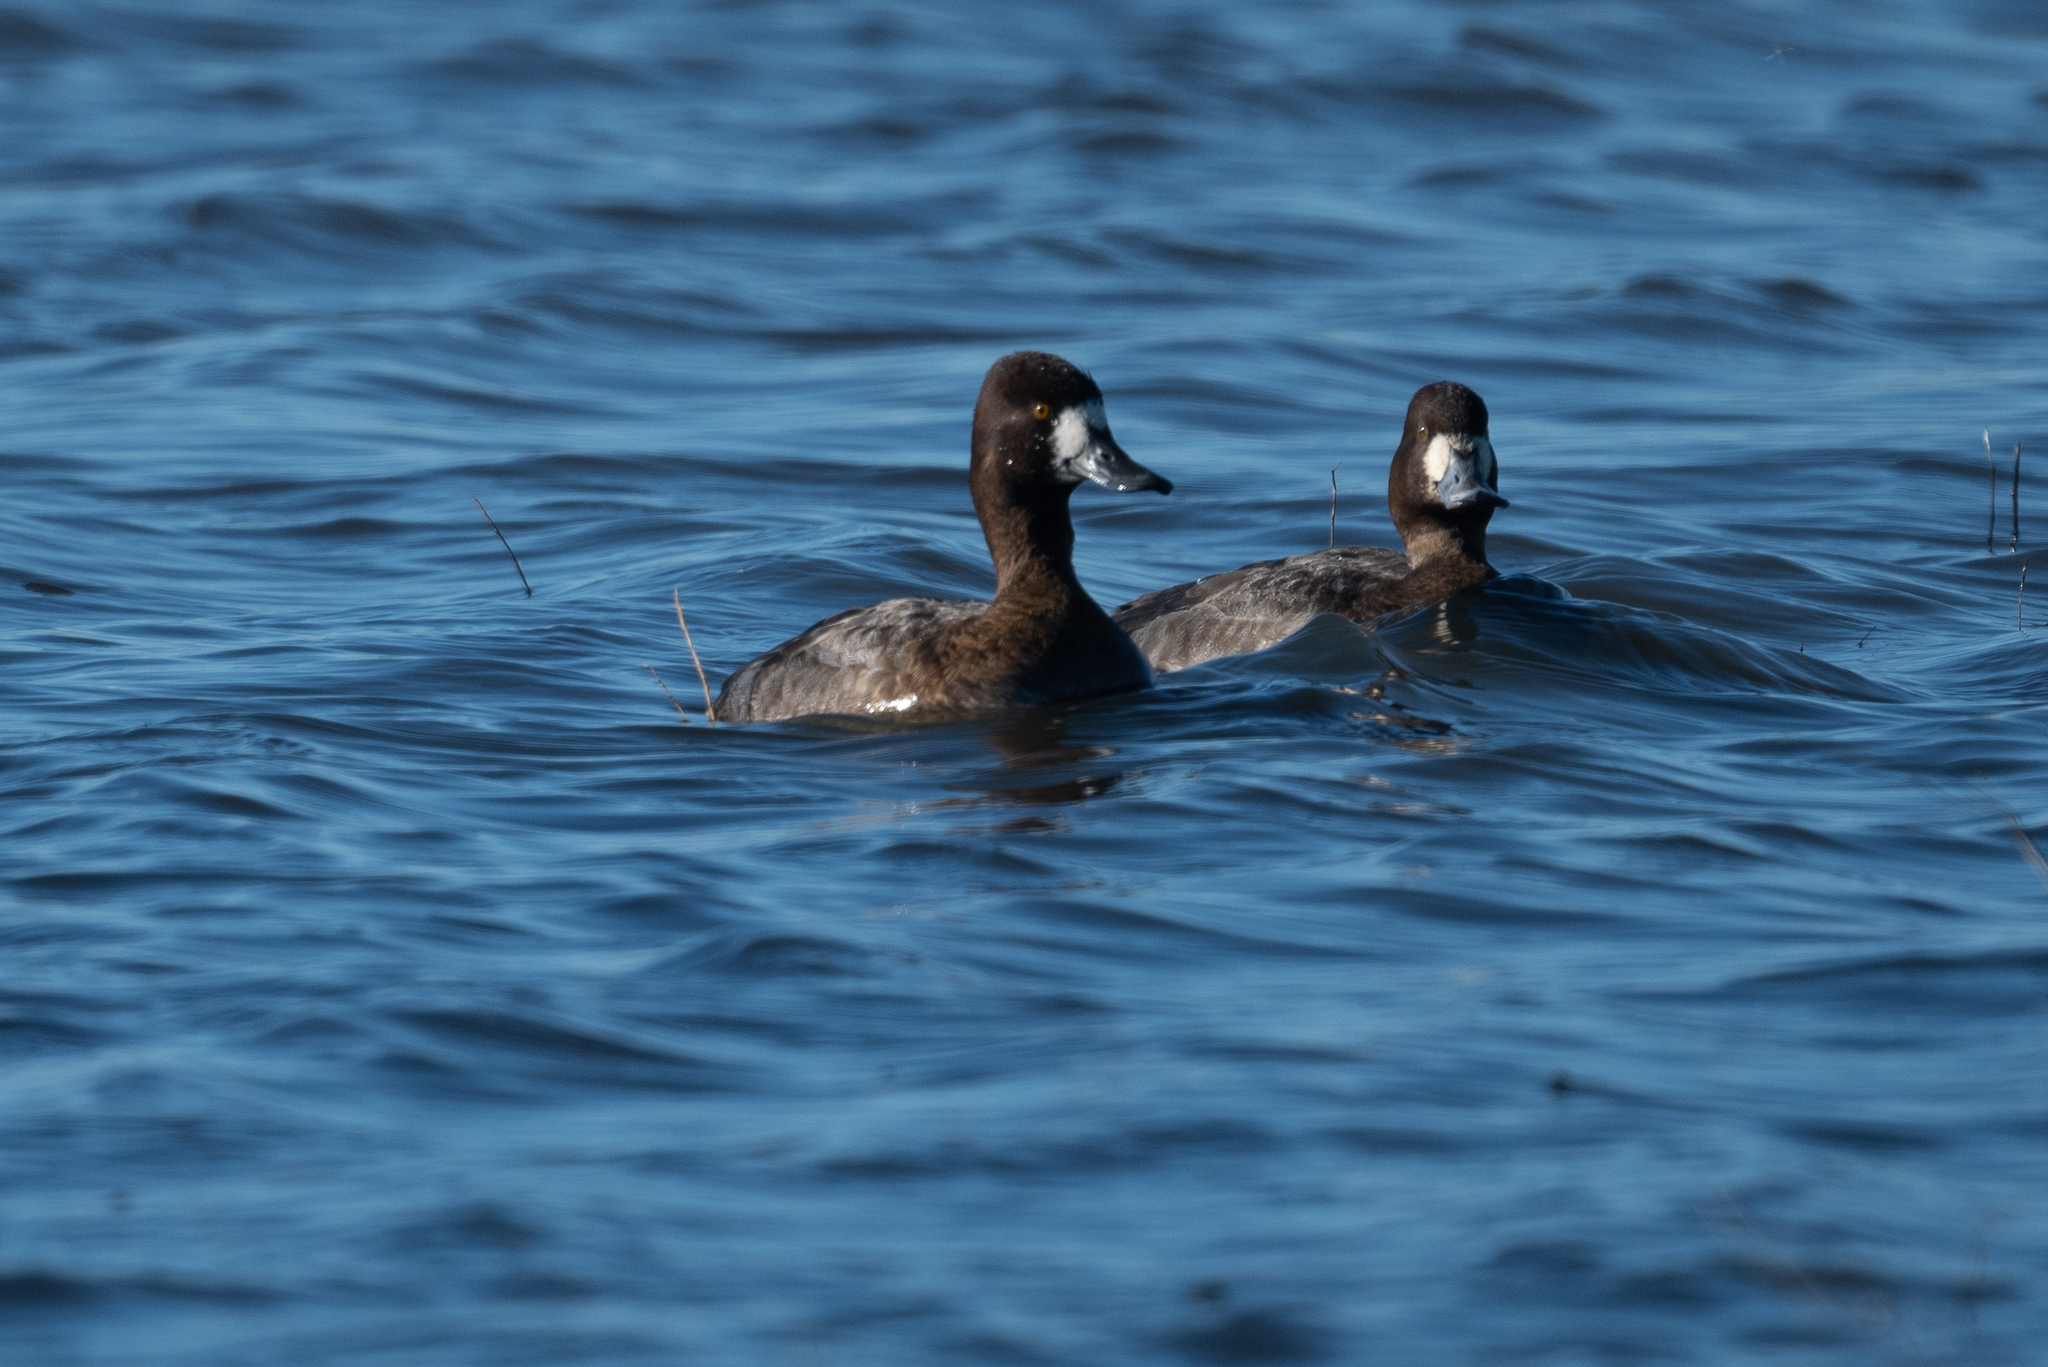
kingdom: Animalia
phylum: Chordata
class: Aves
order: Anseriformes
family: Anatidae
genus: Aythya
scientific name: Aythya affinis
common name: Lesser scaup
